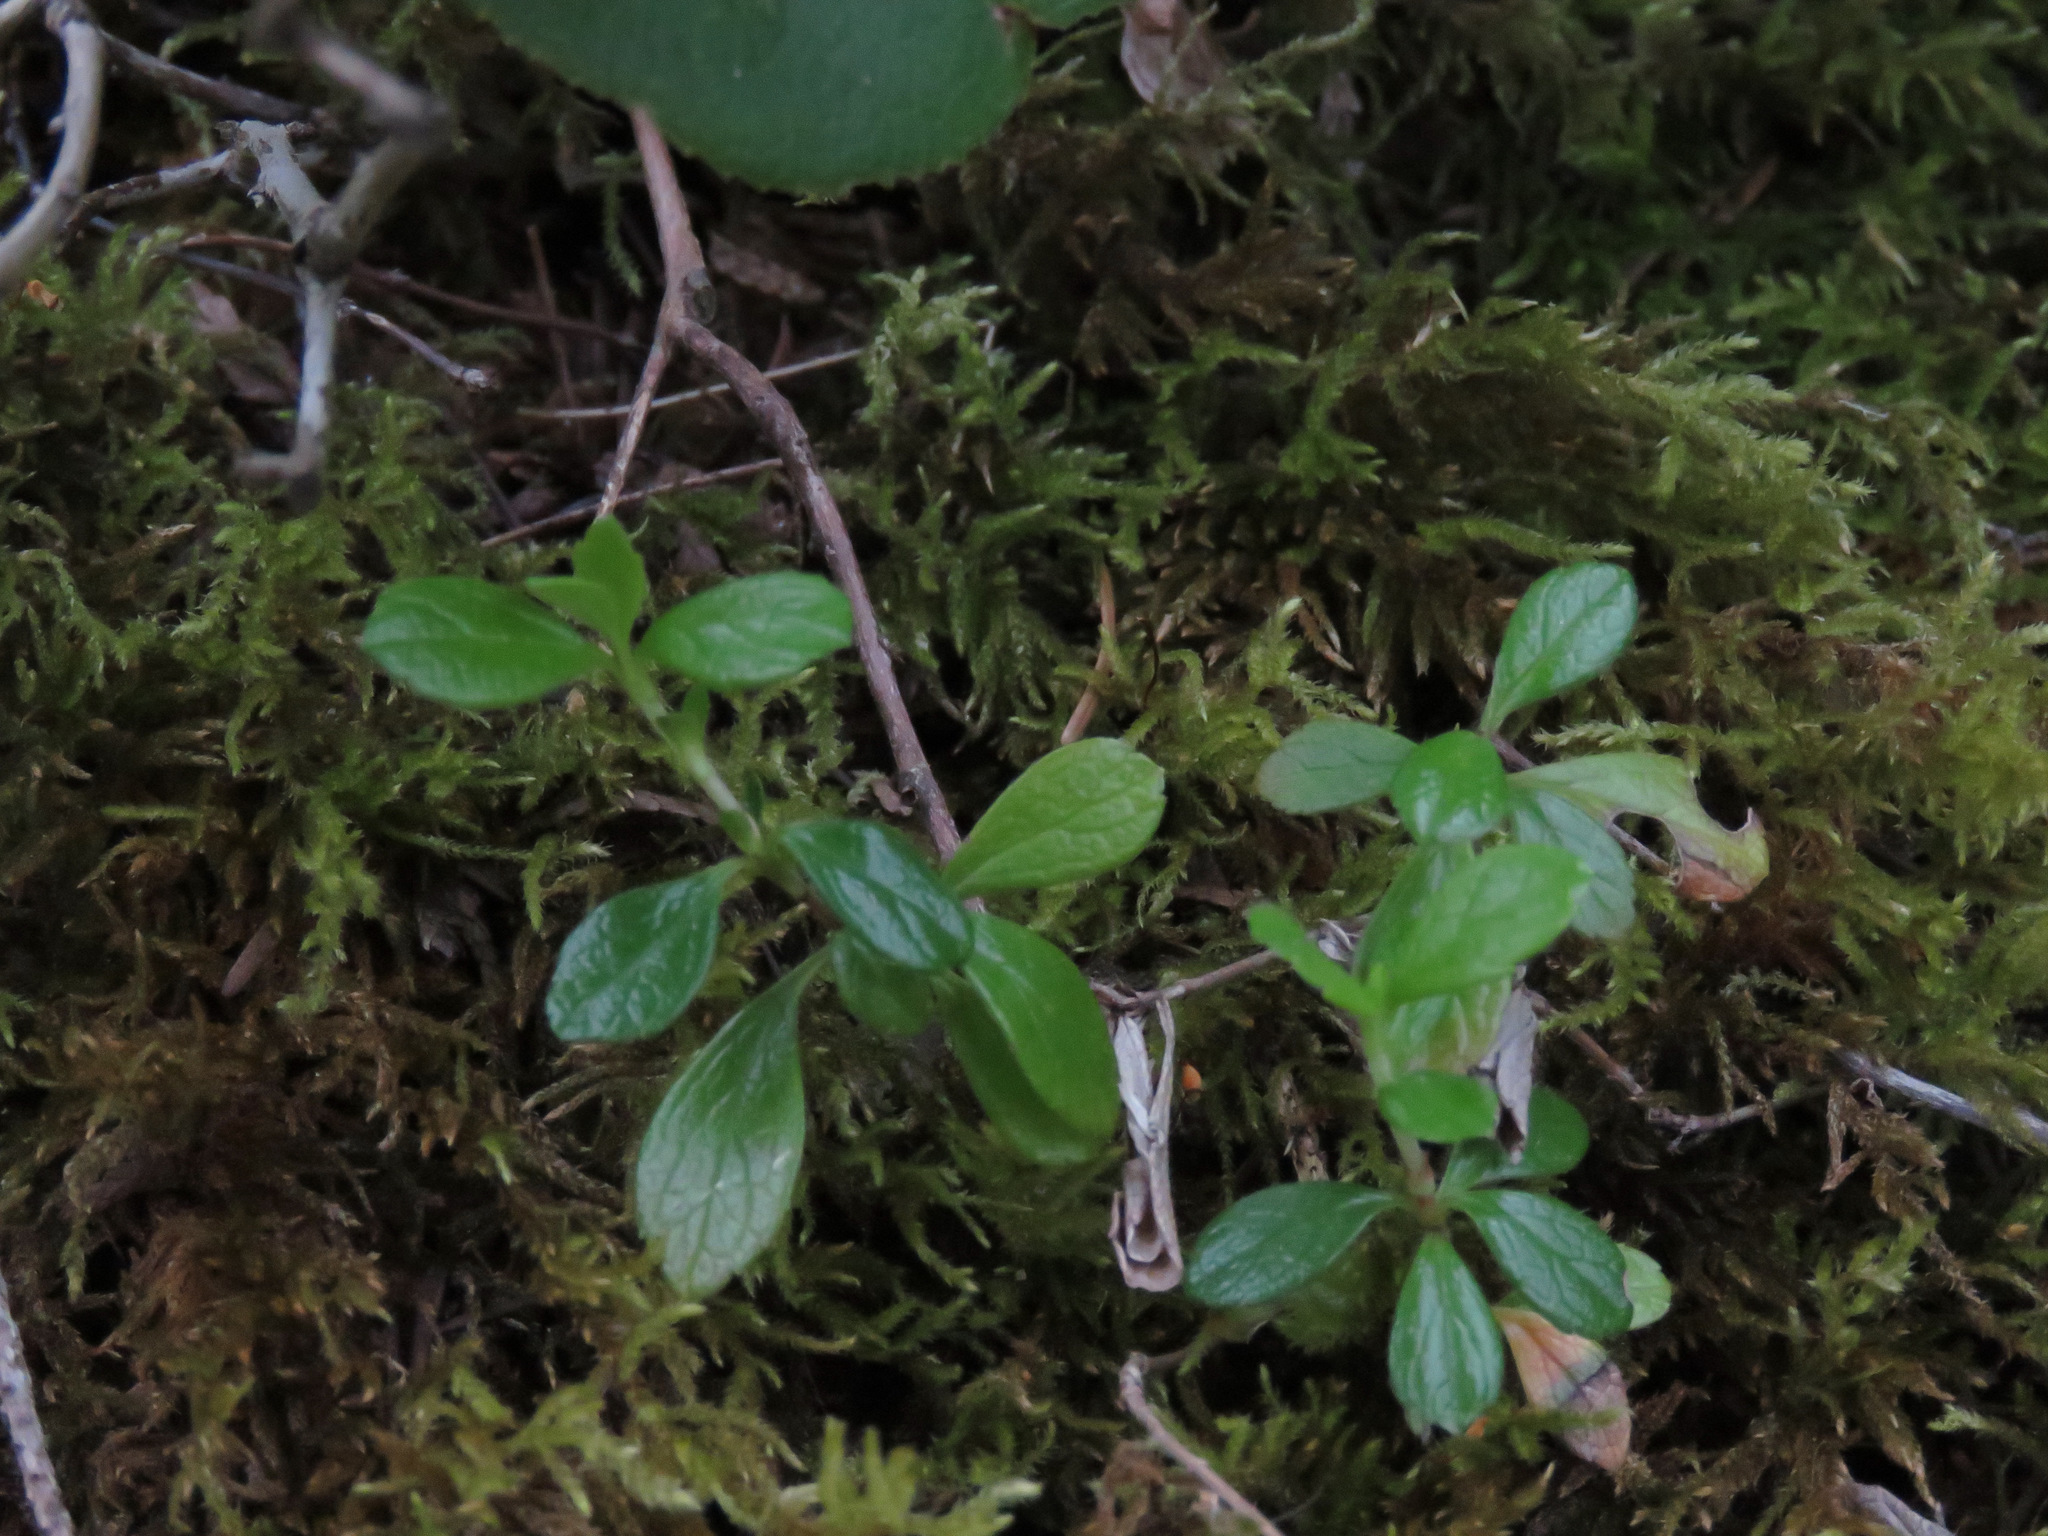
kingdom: Plantae
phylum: Tracheophyta
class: Magnoliopsida
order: Dipsacales
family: Caprifoliaceae
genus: Linnaea
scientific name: Linnaea borealis
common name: Twinflower
